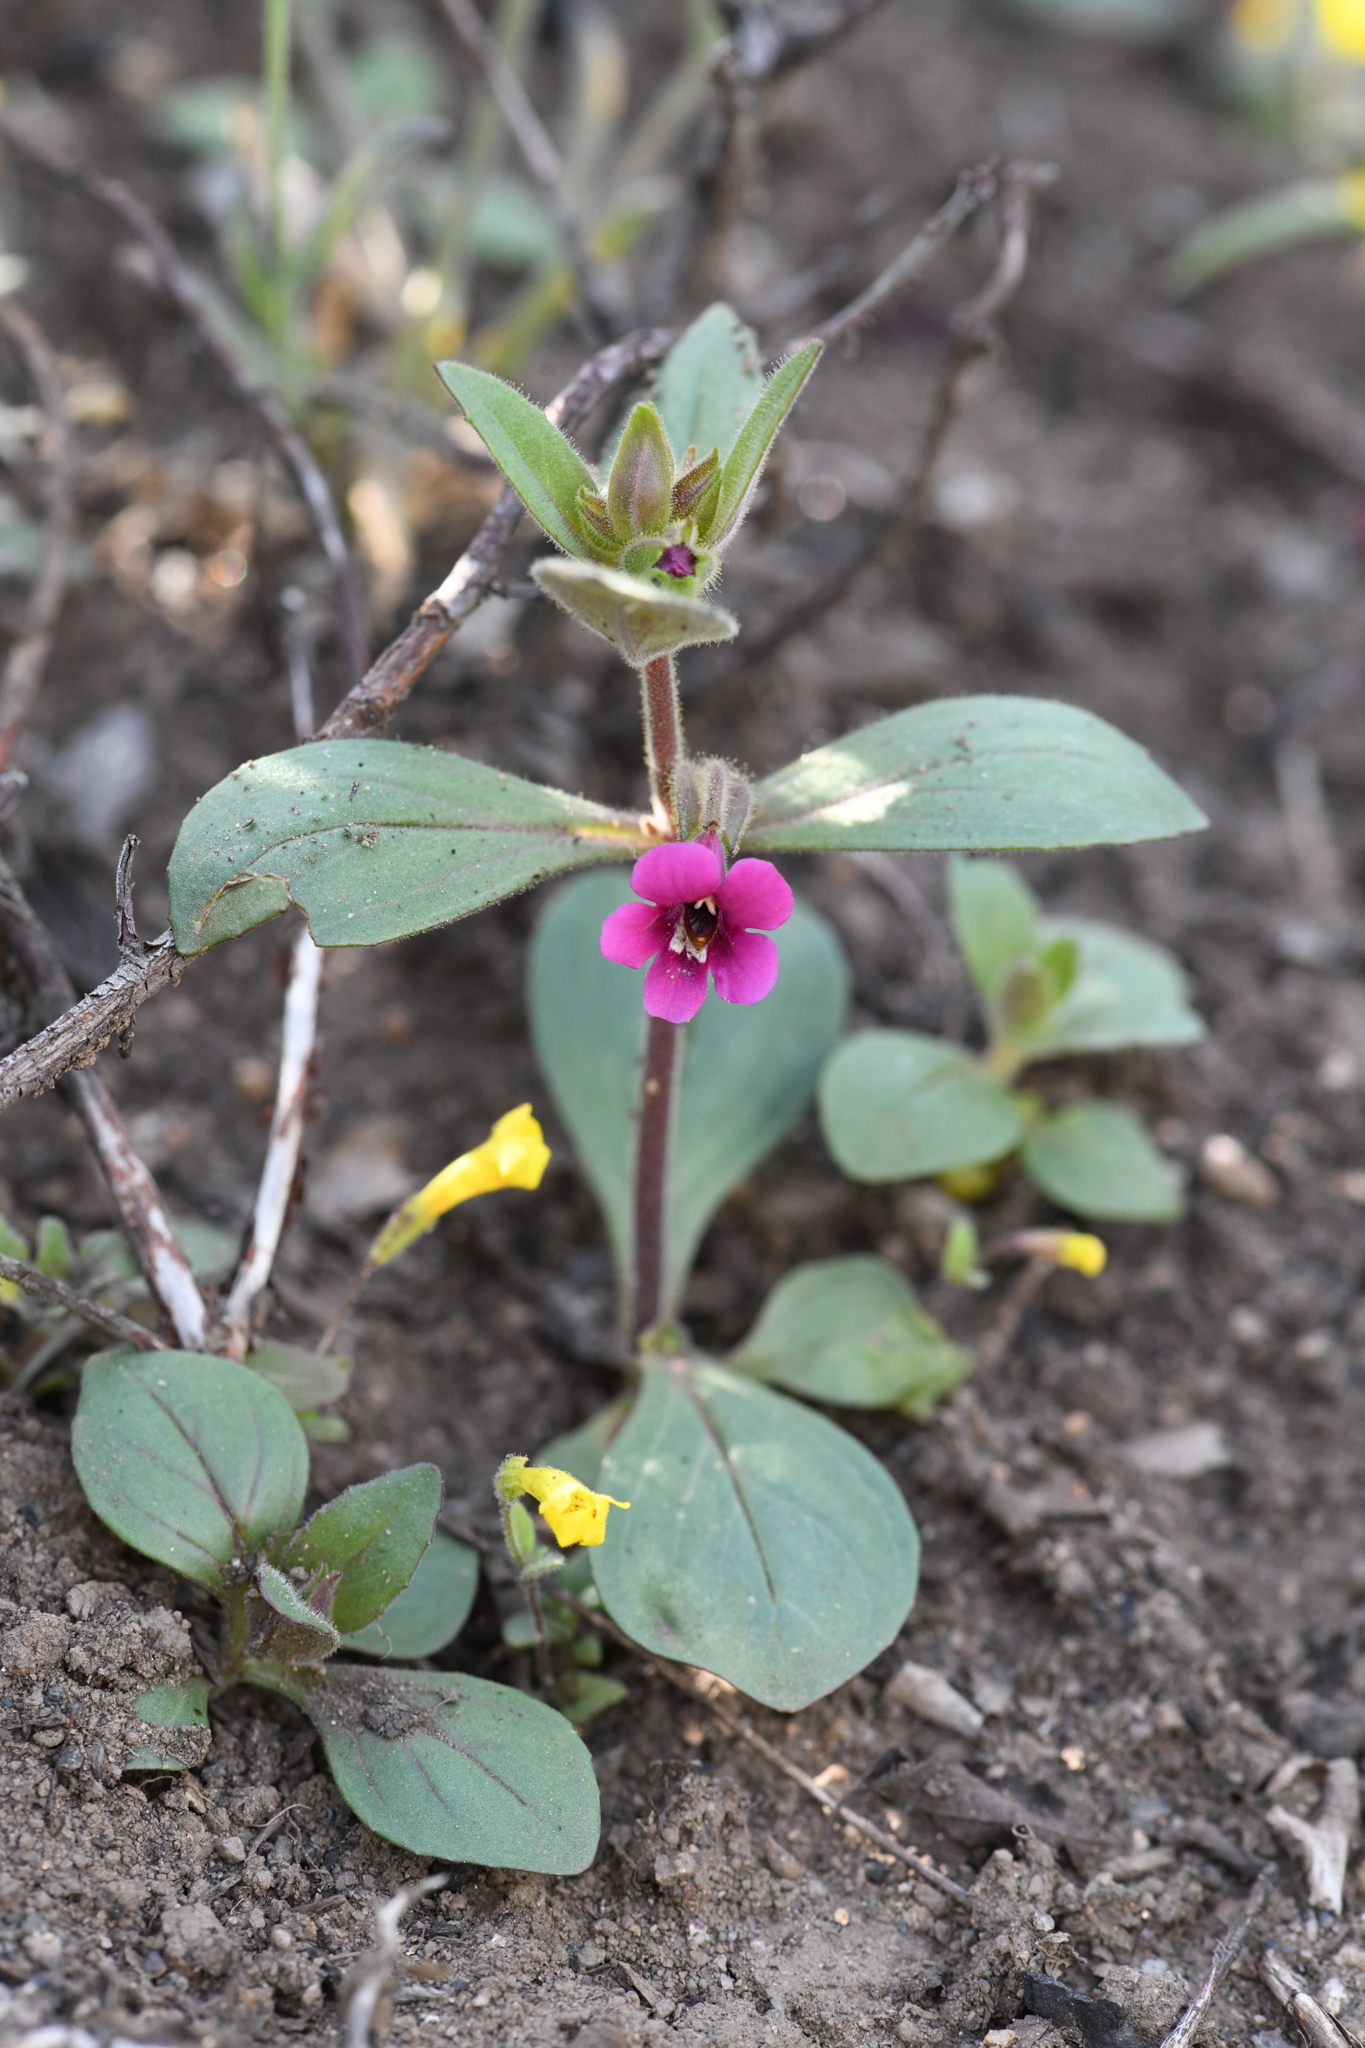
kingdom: Plantae
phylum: Tracheophyta
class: Magnoliopsida
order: Lamiales
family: Phrymaceae
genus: Diplacus
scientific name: Diplacus bolanderi
